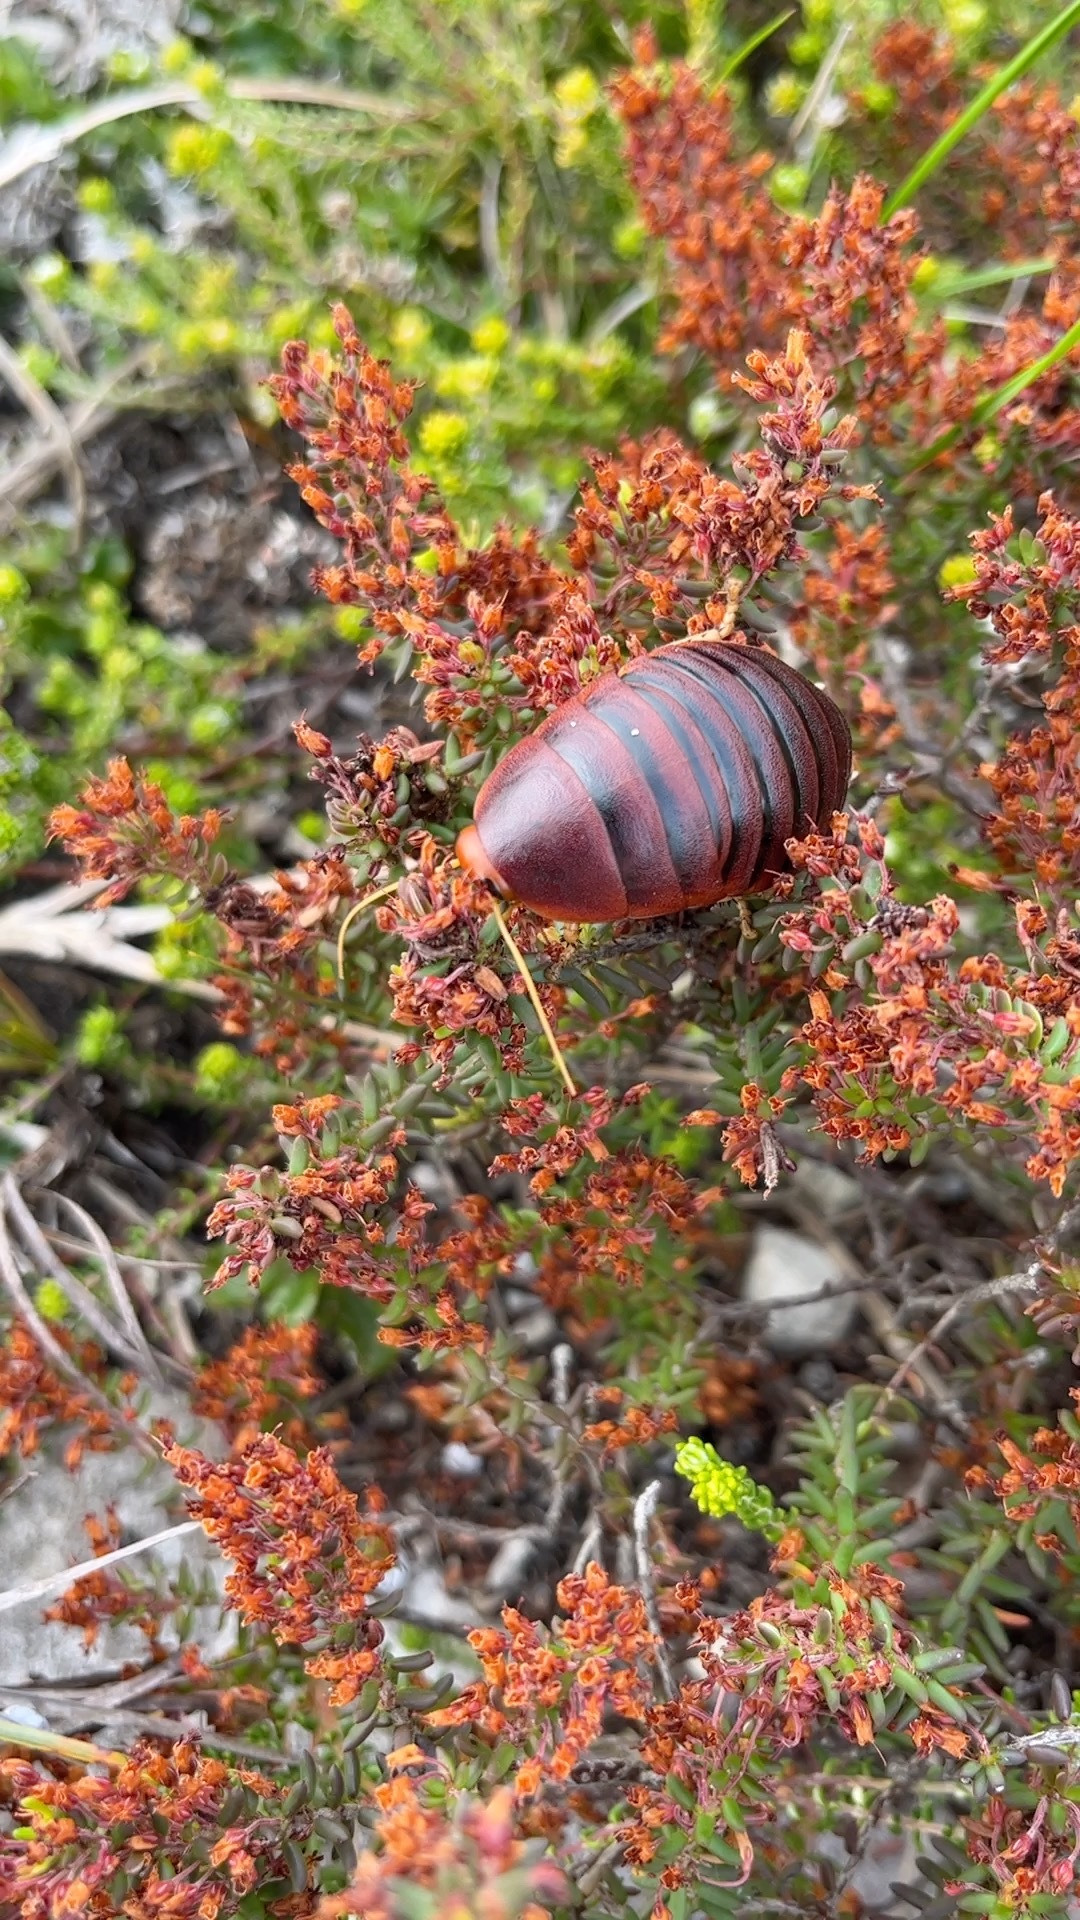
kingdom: Animalia
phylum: Arthropoda
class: Insecta
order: Blattodea
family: Blaberidae
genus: Aptera
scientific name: Aptera fusca
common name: Cape mountain cockroach
